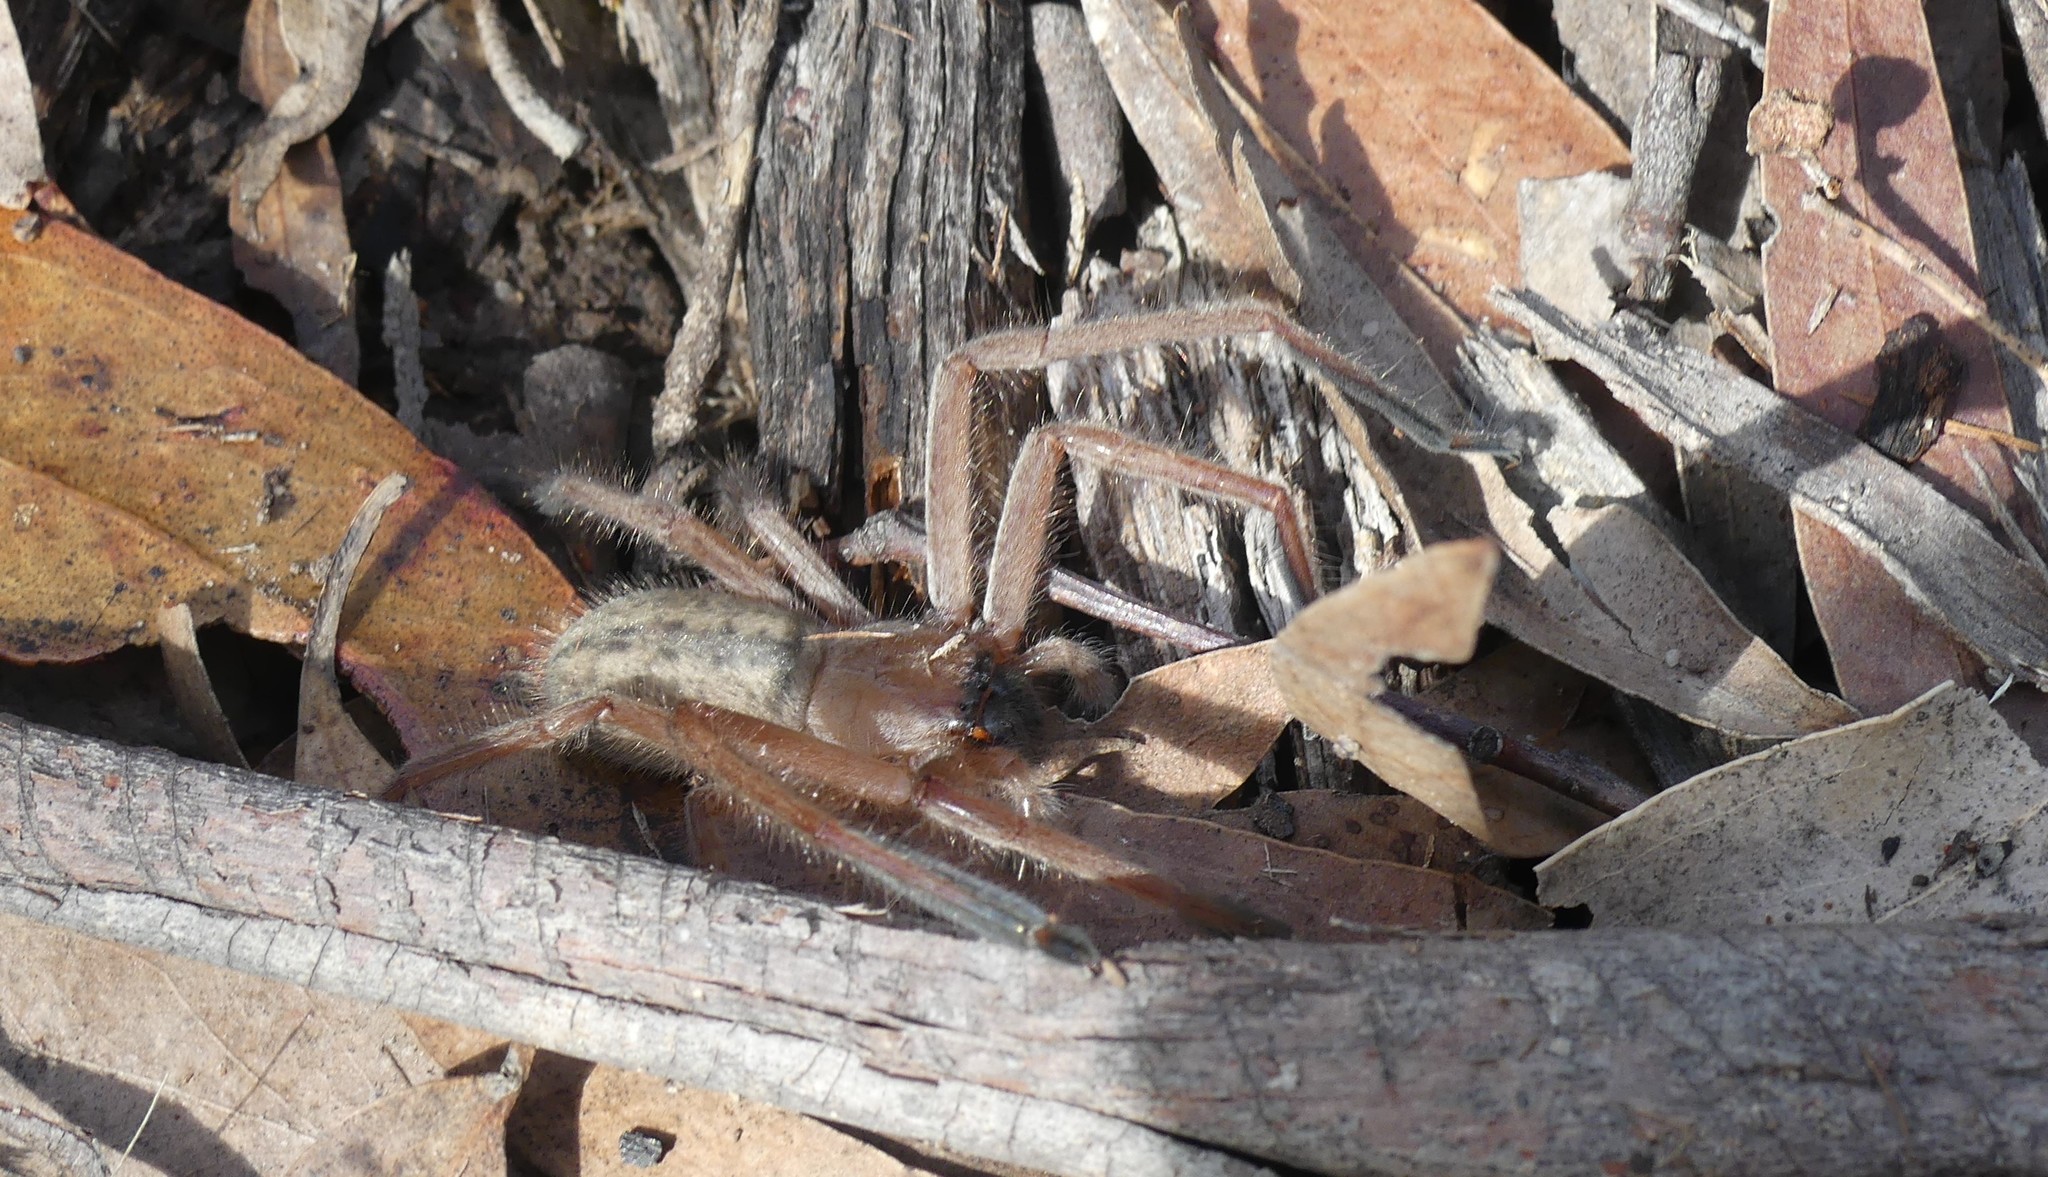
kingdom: Animalia
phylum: Arthropoda
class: Arachnida
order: Araneae
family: Sparassidae
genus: Delena
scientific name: Delena cancerides
